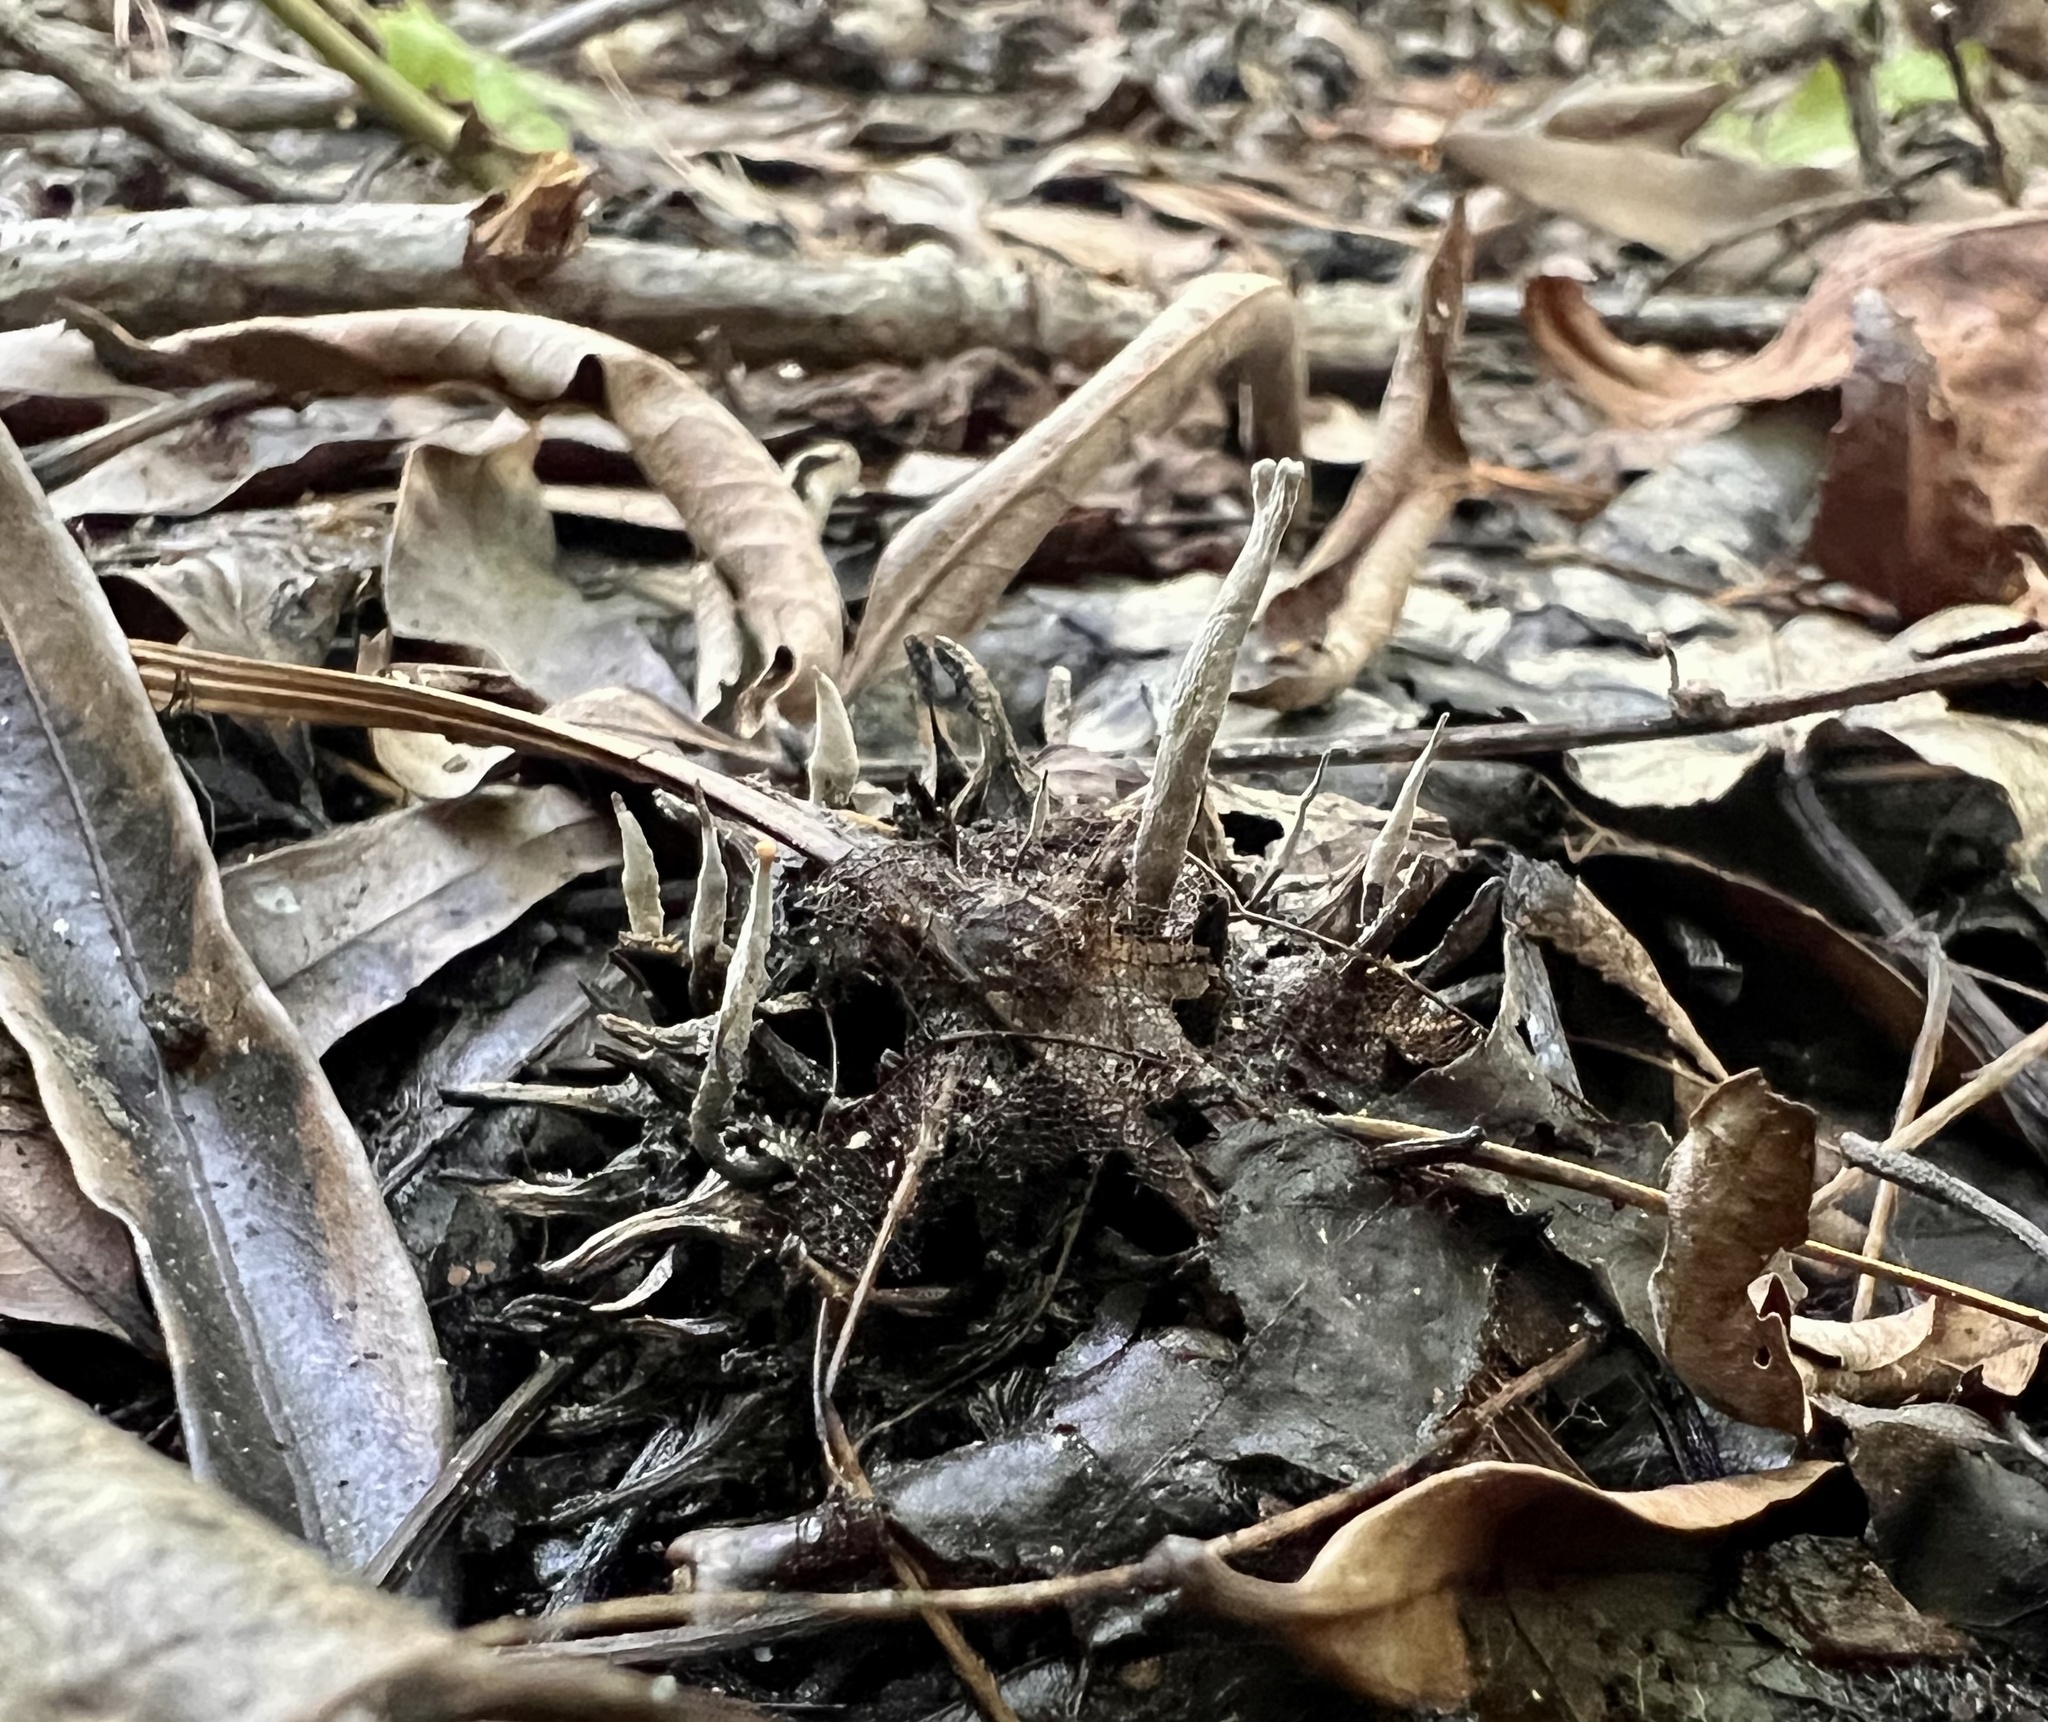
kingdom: Fungi
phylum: Ascomycota
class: Sordariomycetes
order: Xylariales
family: Xylariaceae
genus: Xylaria
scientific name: Xylaria liquidambaris
